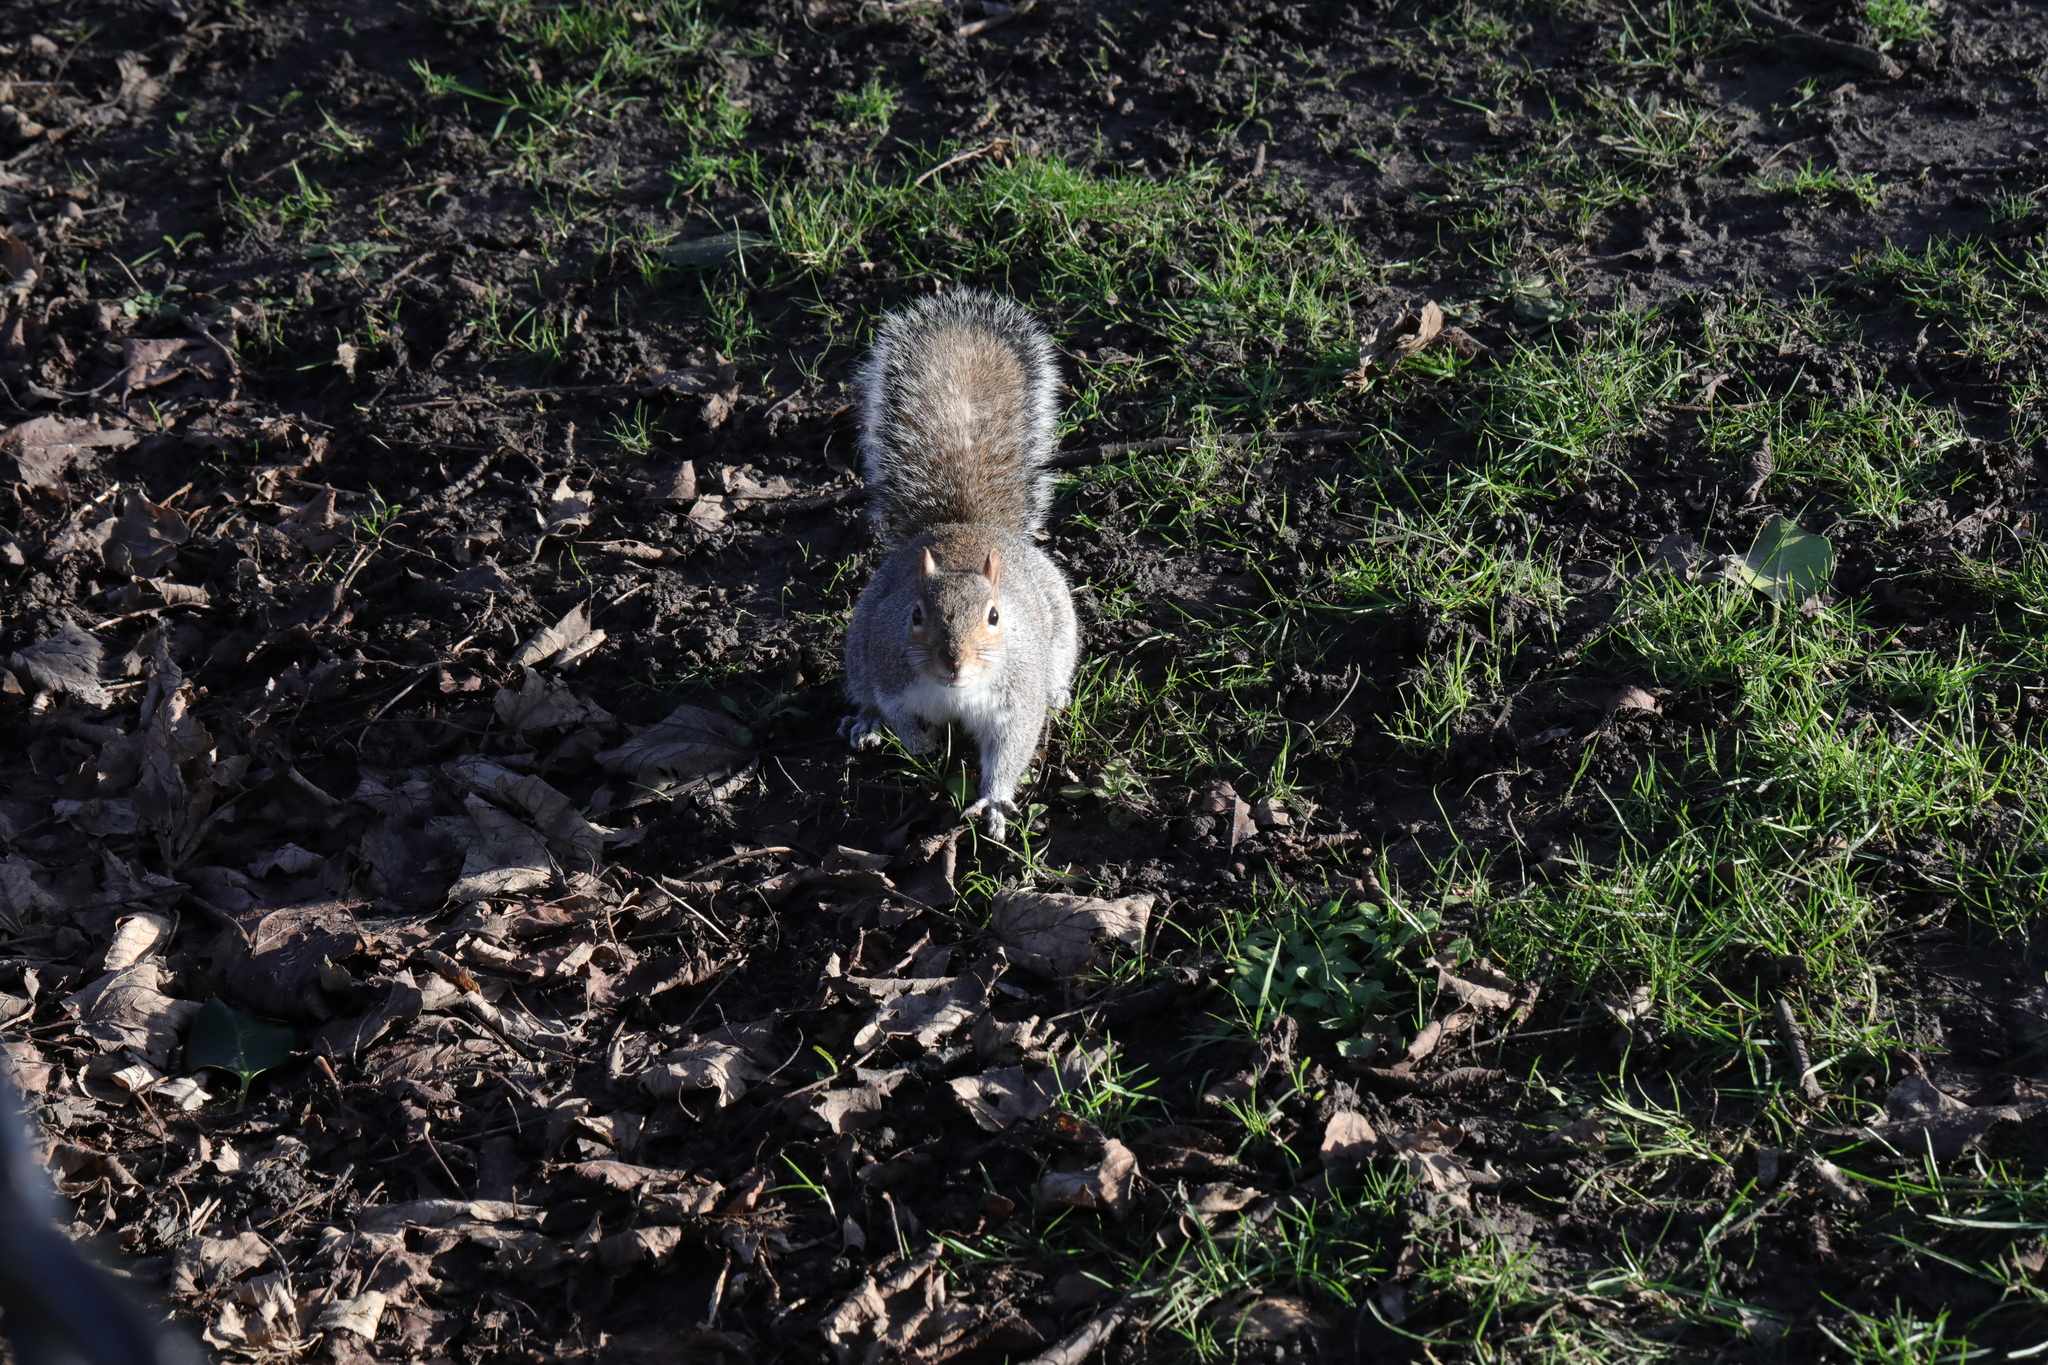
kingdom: Animalia
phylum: Chordata
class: Mammalia
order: Rodentia
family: Sciuridae
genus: Sciurus
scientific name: Sciurus carolinensis
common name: Eastern gray squirrel
